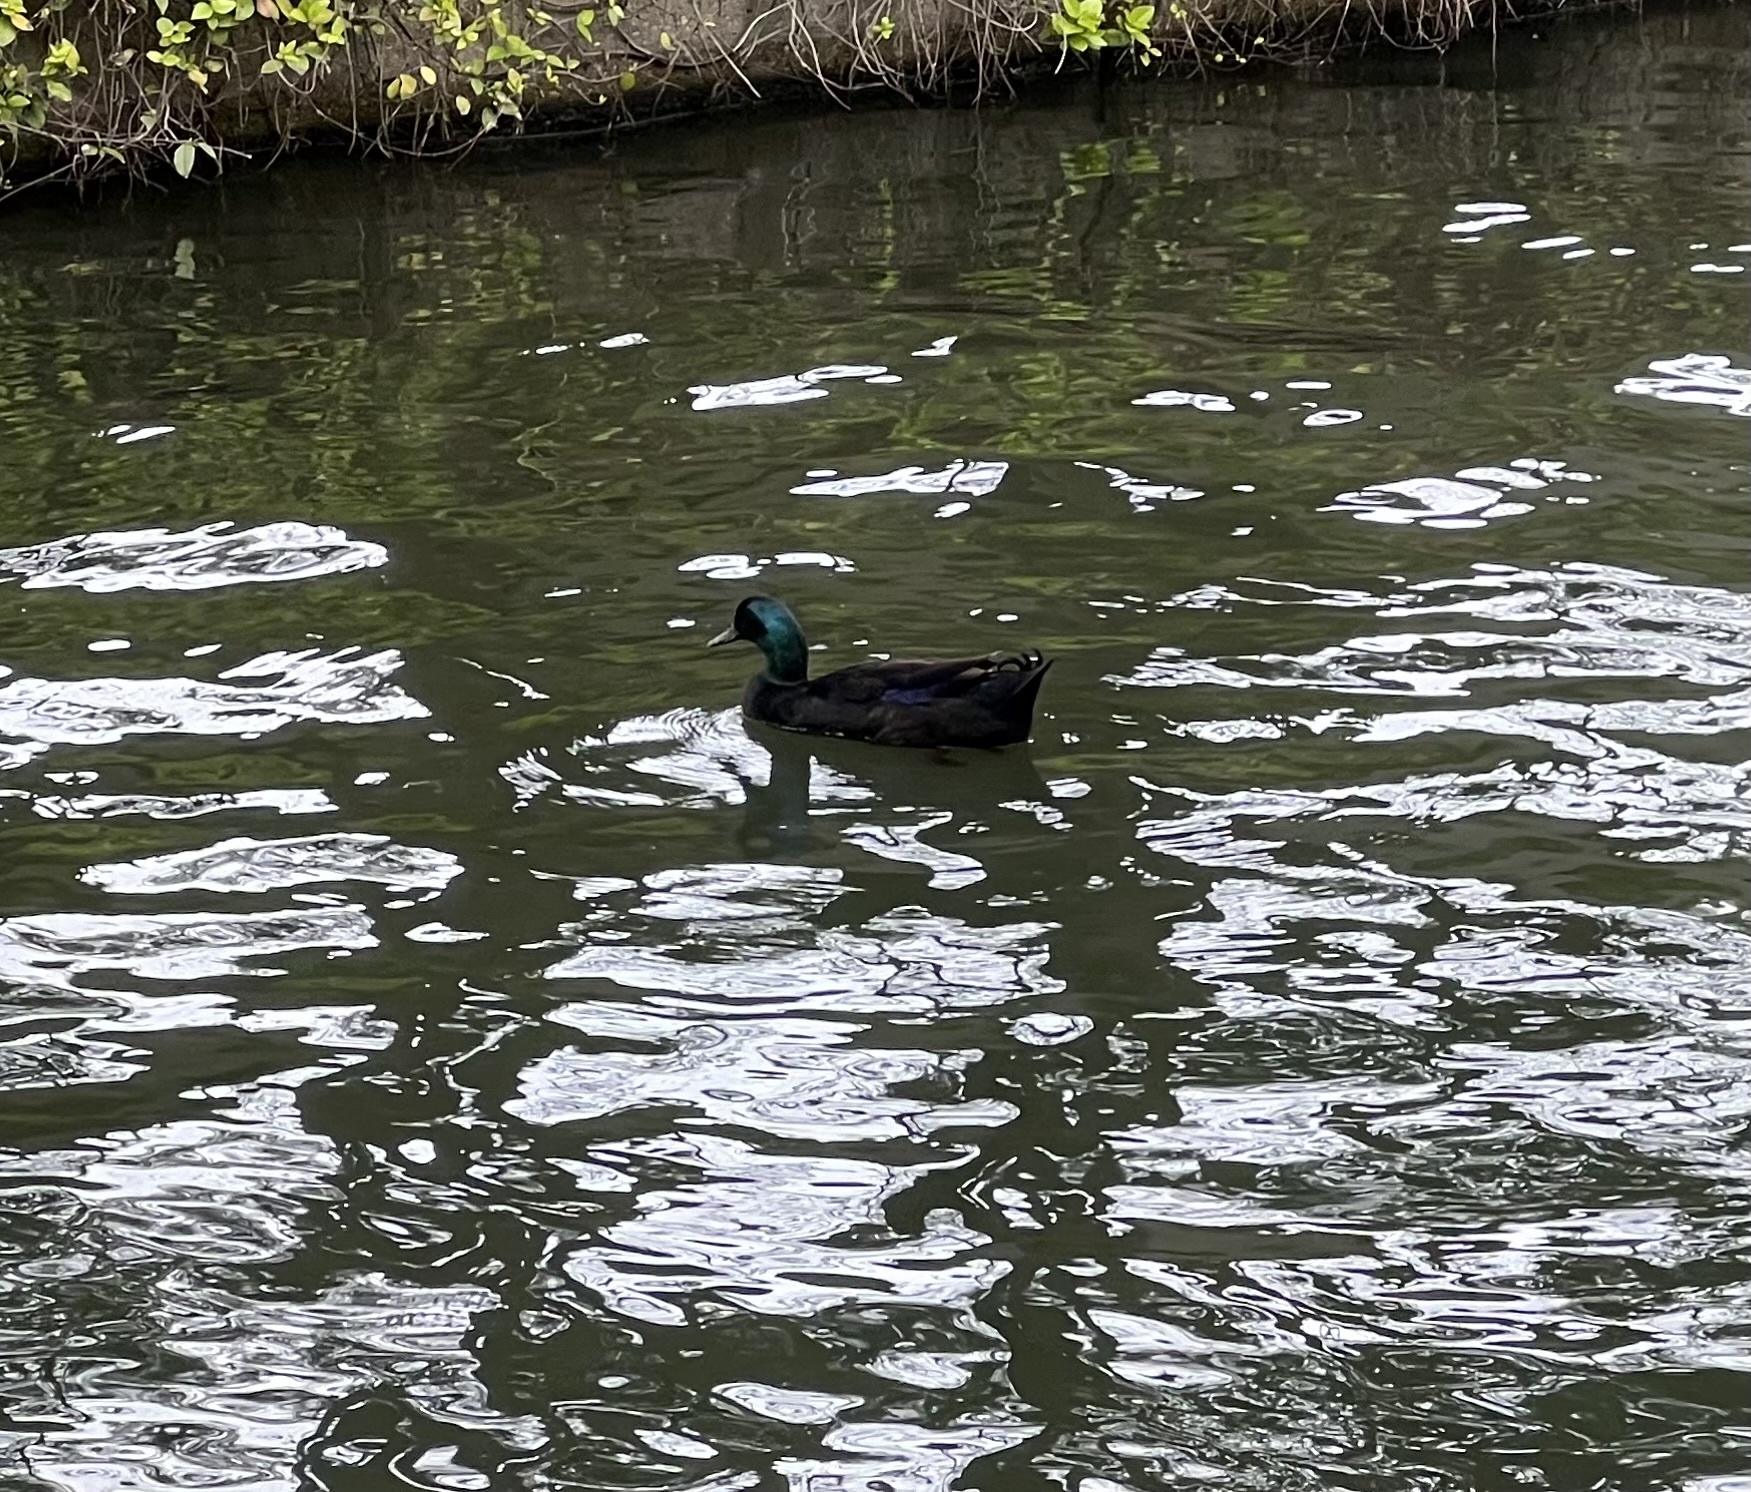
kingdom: Animalia
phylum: Chordata
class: Aves
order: Anseriformes
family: Anatidae
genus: Anas
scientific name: Anas platyrhynchos
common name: Mallard
